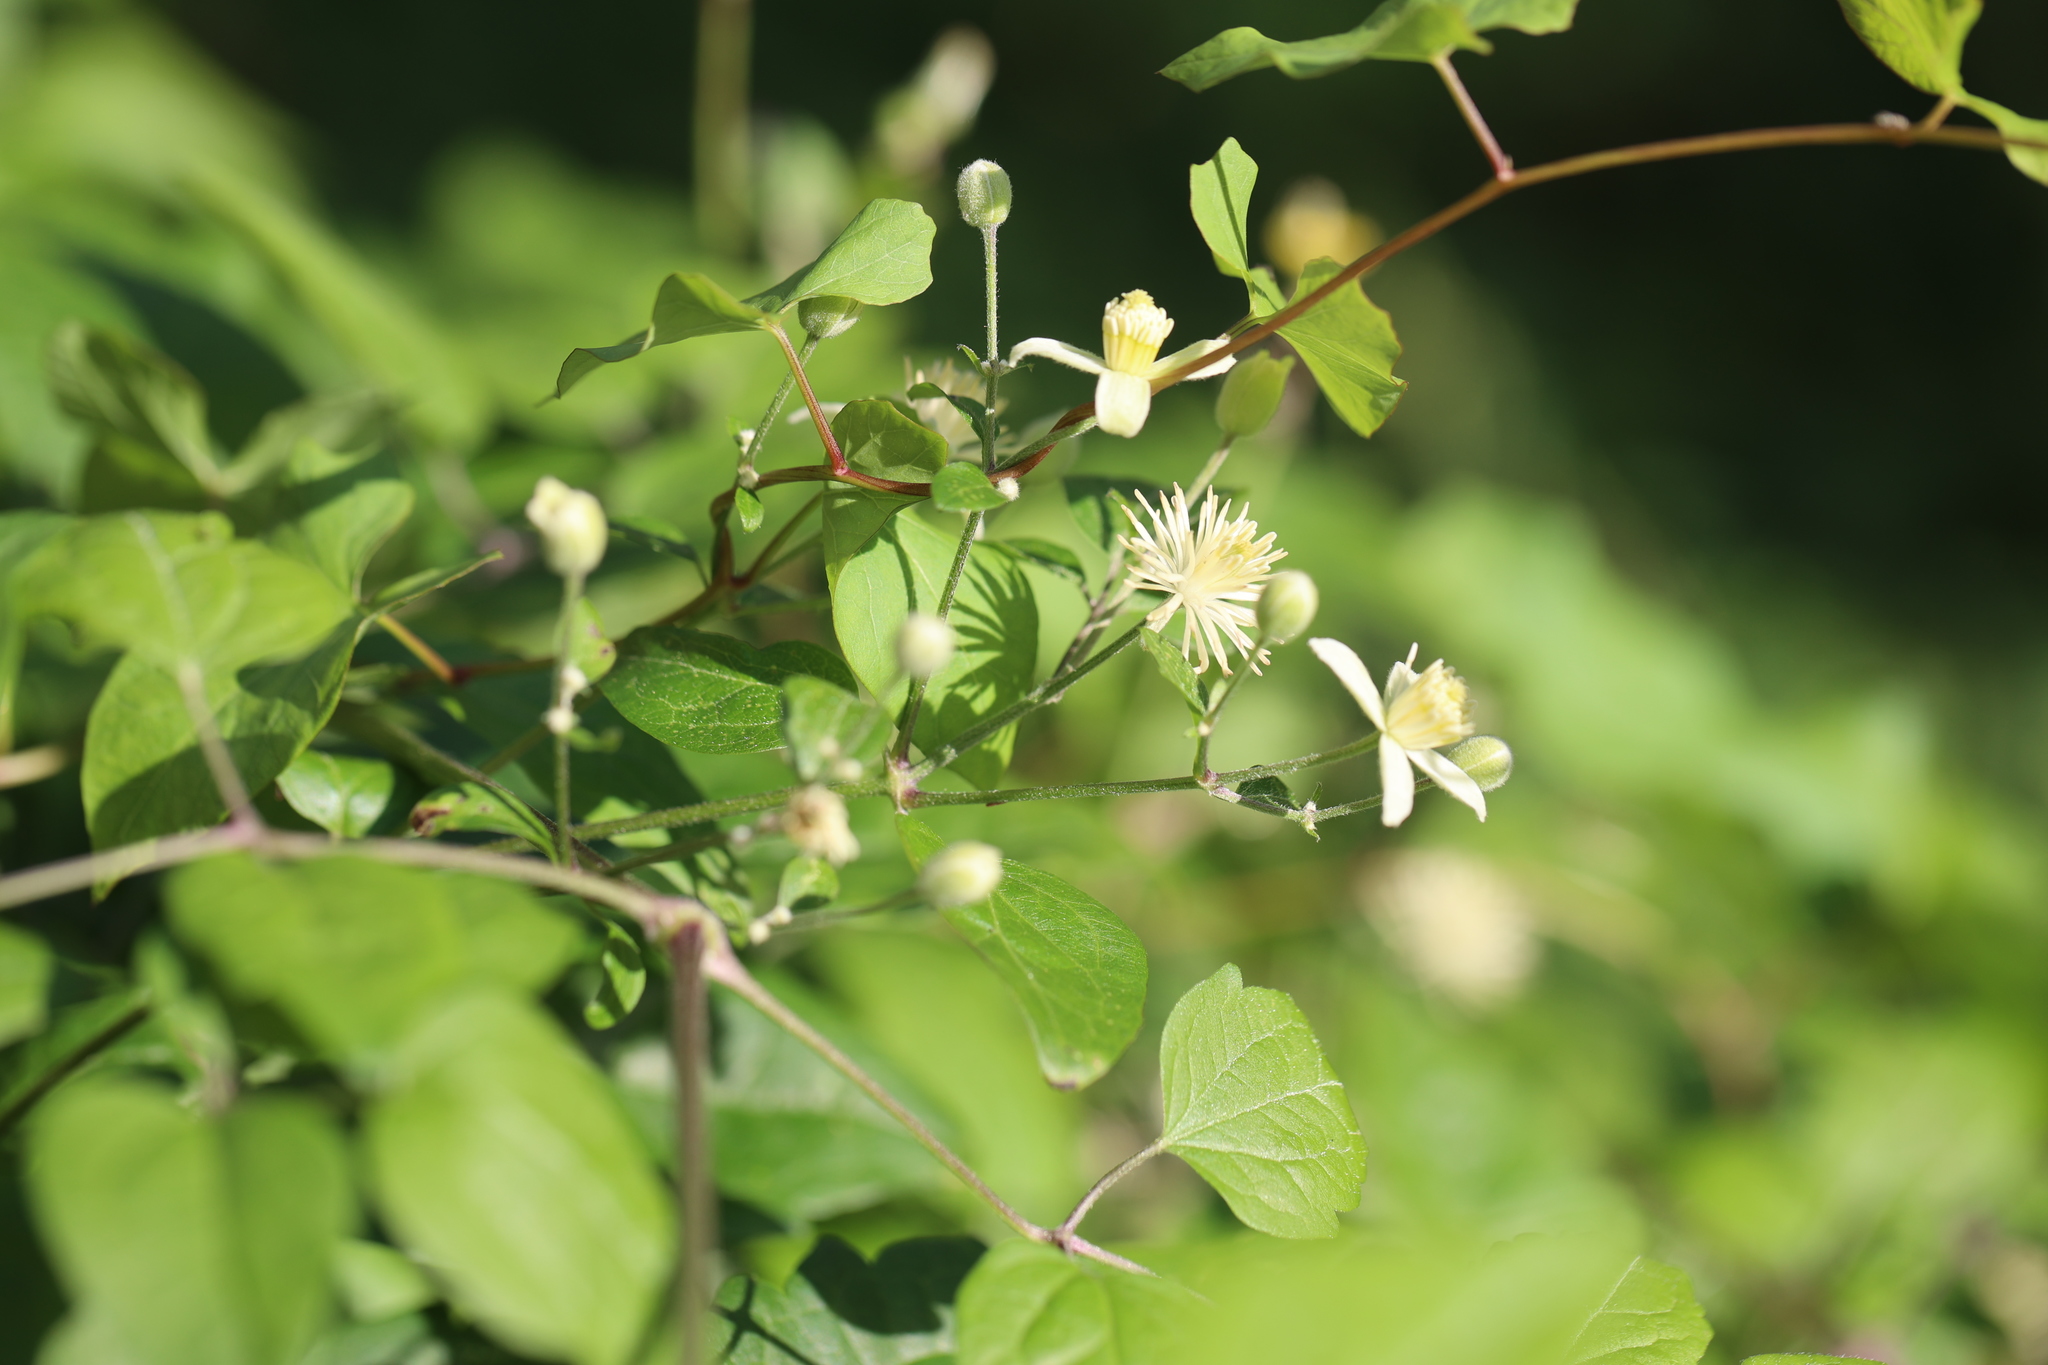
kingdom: Plantae
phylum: Tracheophyta
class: Magnoliopsida
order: Ranunculales
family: Ranunculaceae
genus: Clematis
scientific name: Clematis vitalba
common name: Evergreen clematis
